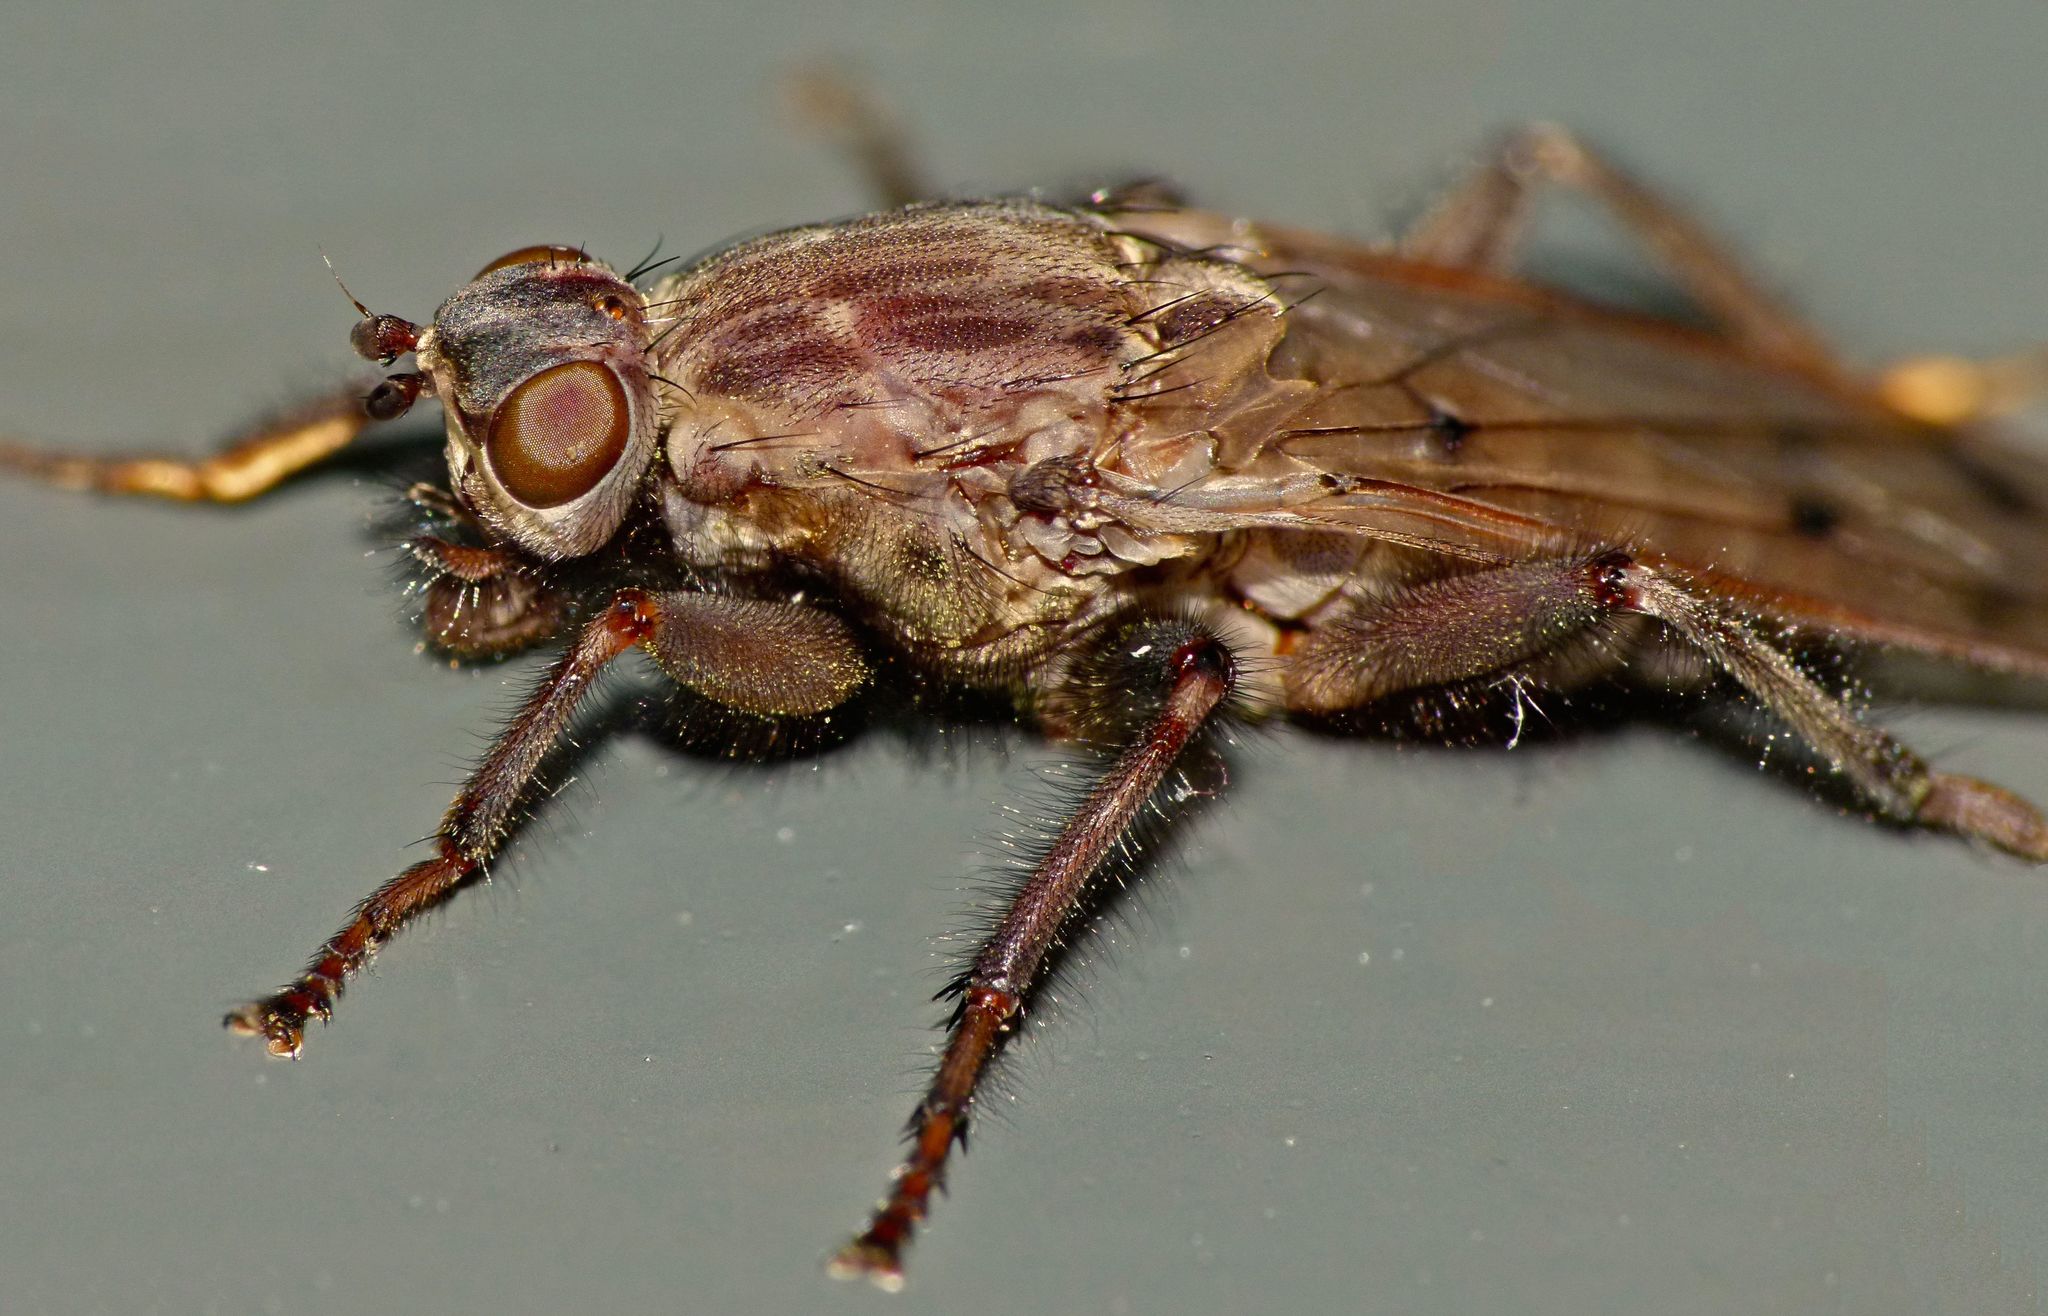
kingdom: Animalia
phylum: Arthropoda
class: Insecta
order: Diptera
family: Helcomyzidae
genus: Maorimyia
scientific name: Maorimyia bipunctata
